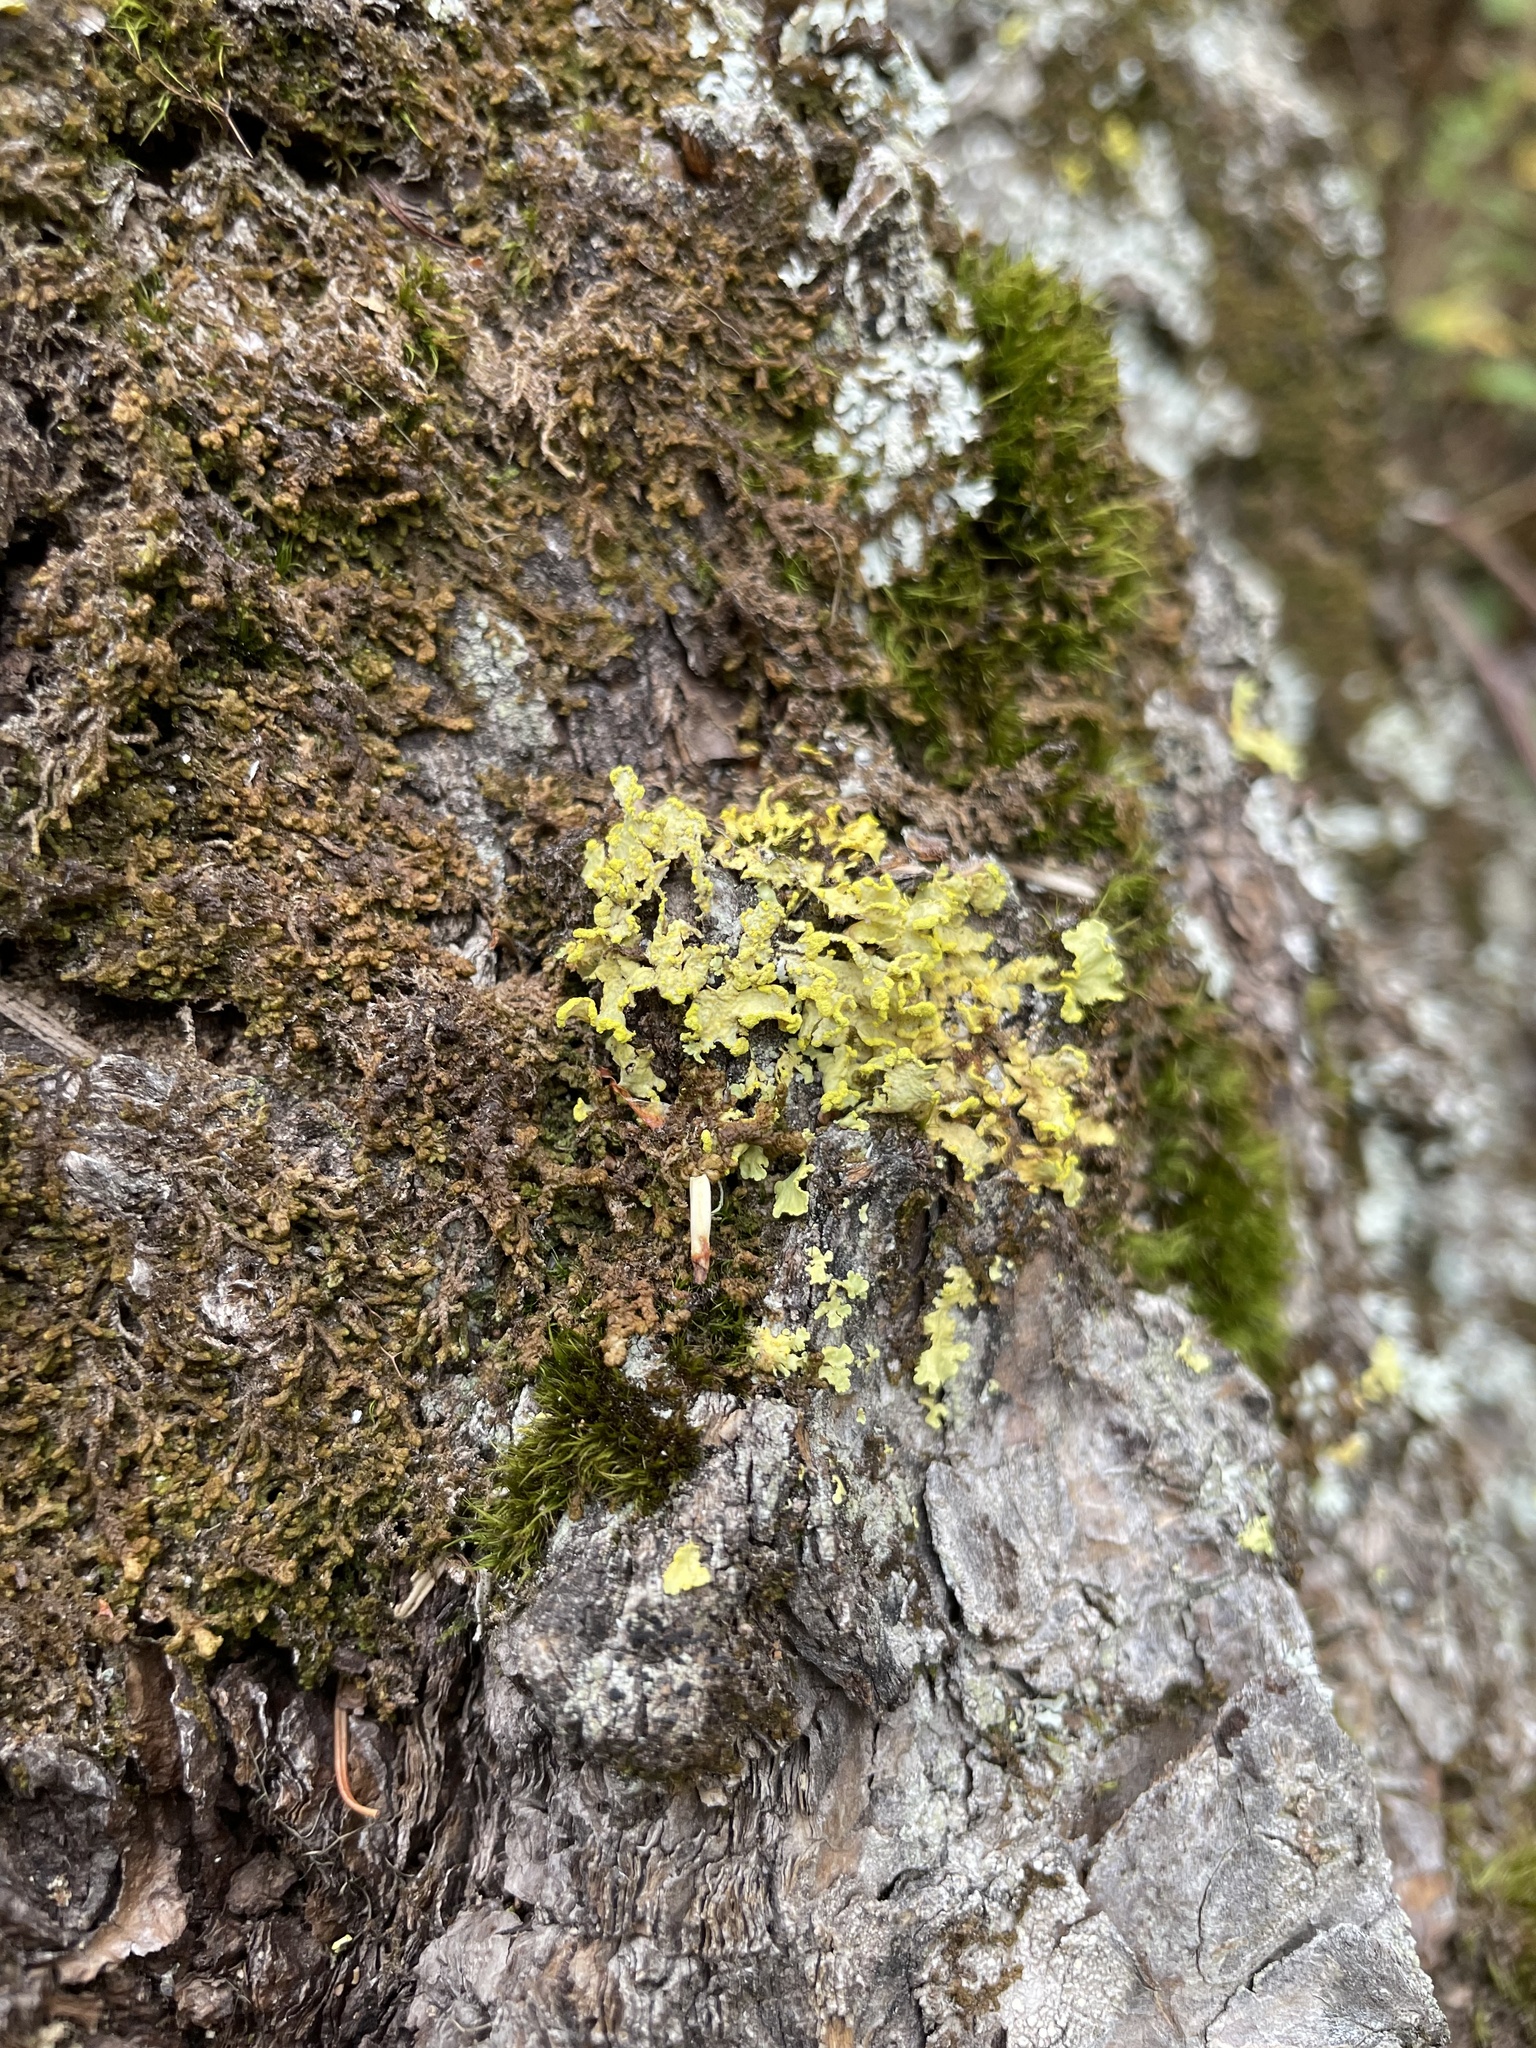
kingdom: Fungi
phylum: Ascomycota
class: Lecanoromycetes
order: Lecanorales
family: Parmeliaceae
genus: Vulpicida
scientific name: Vulpicida pinastri
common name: Powdered sunshine lichen
